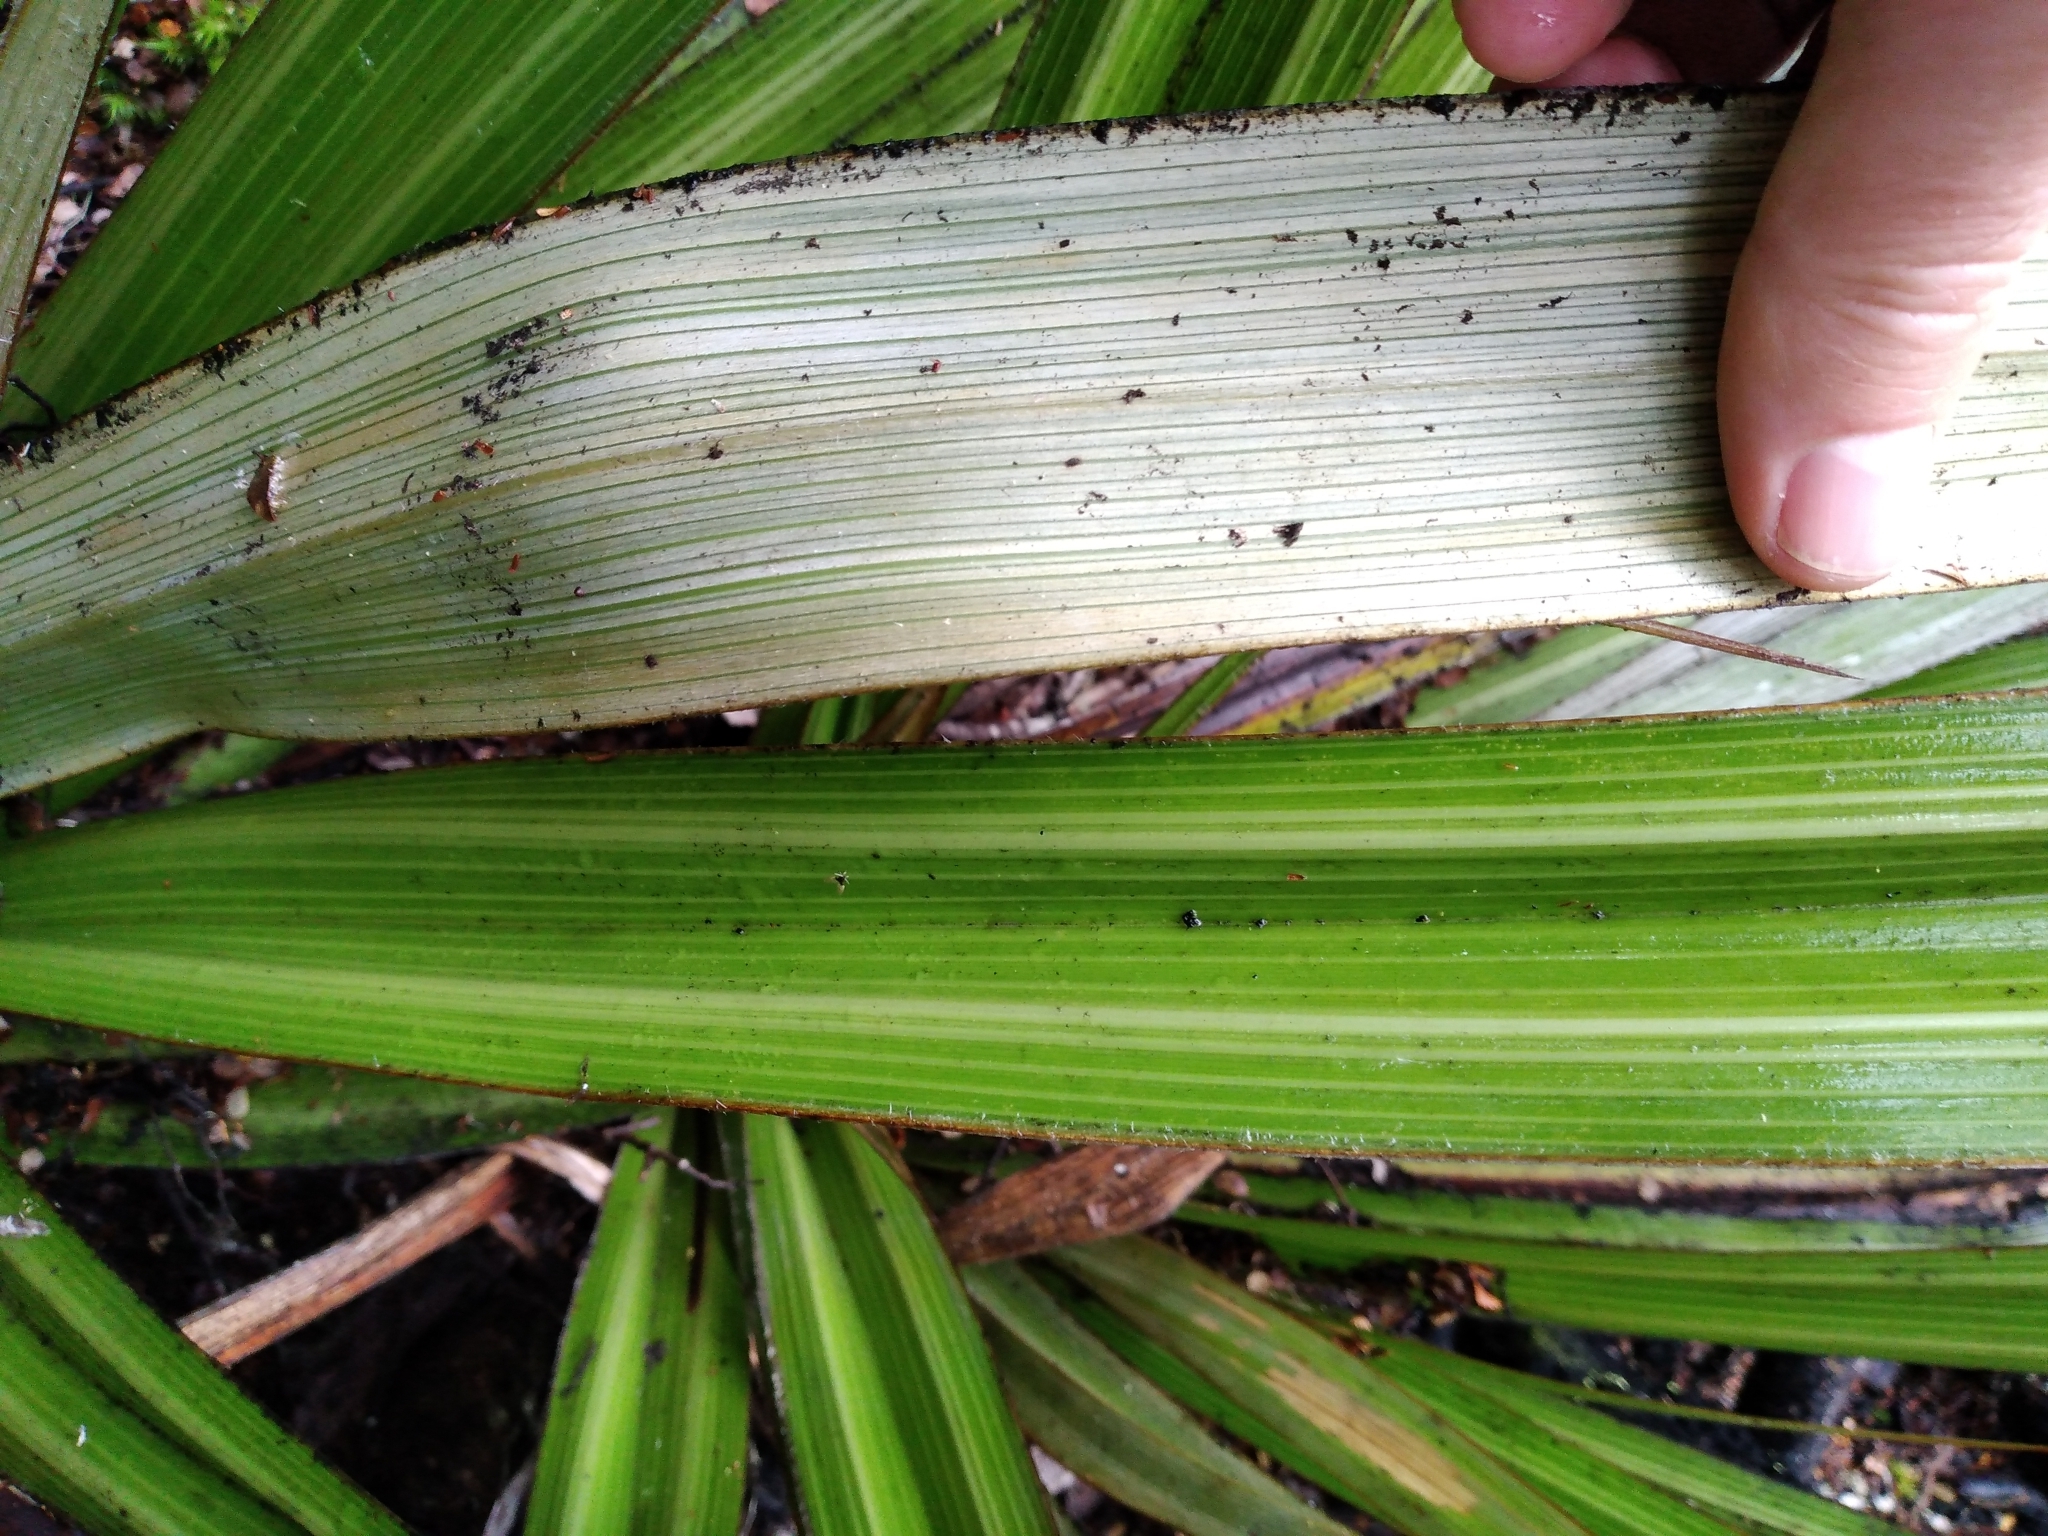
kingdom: Plantae
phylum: Tracheophyta
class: Liliopsida
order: Asparagales
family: Asteliaceae
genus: Astelia
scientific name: Astelia nivicola
